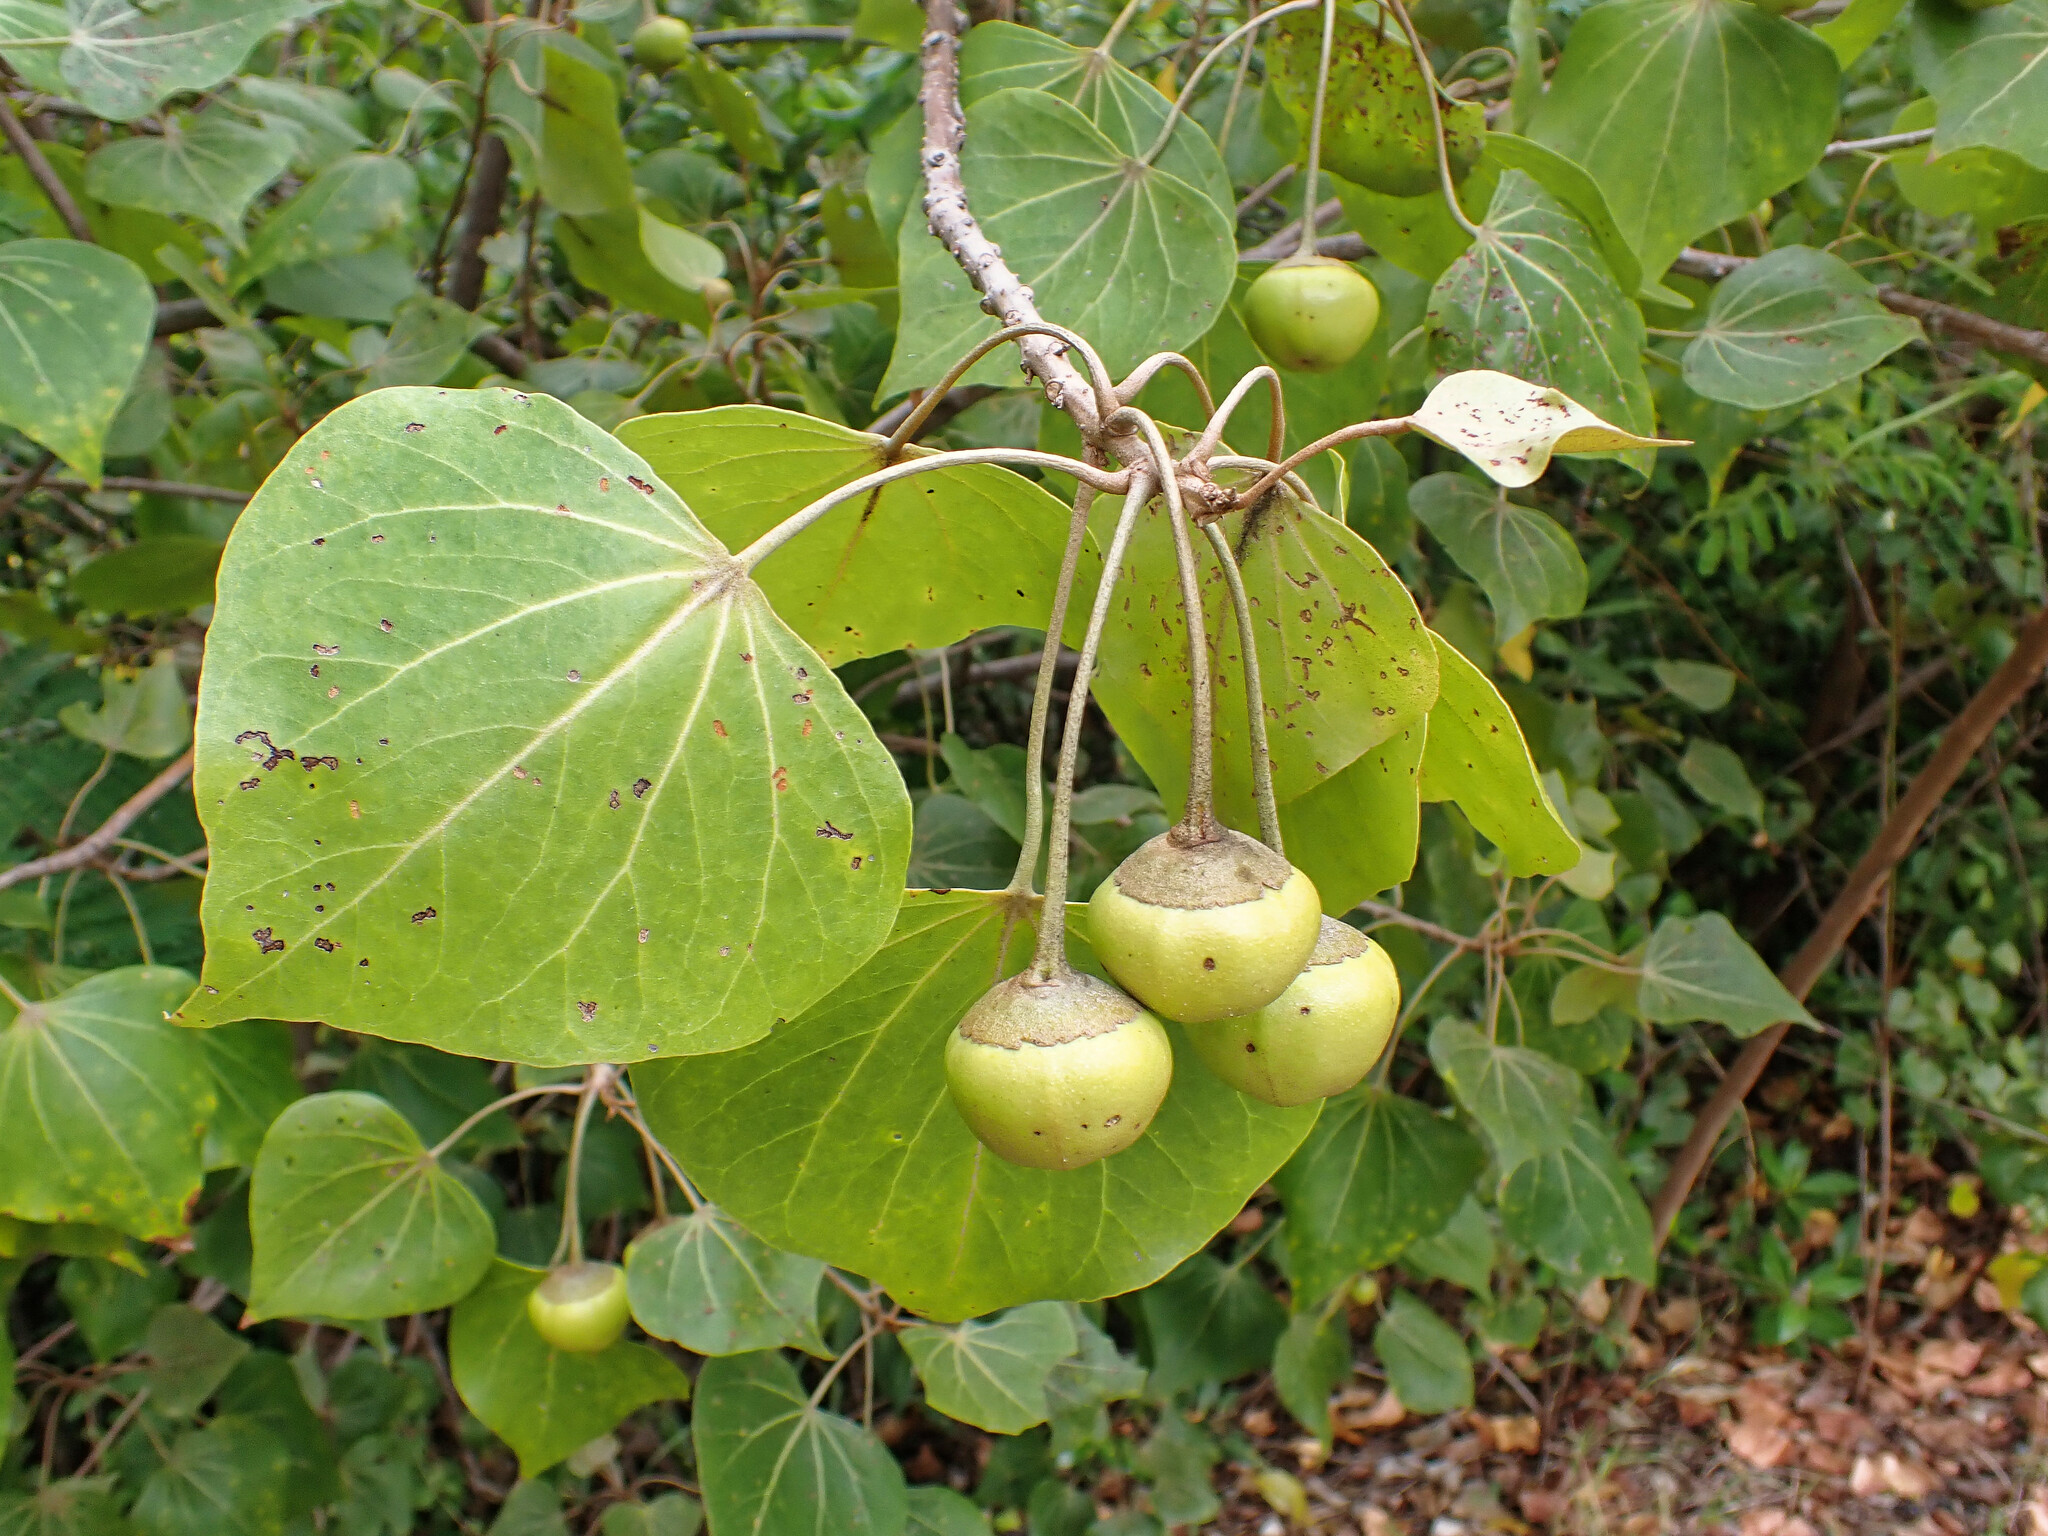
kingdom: Plantae
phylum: Tracheophyta
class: Magnoliopsida
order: Malvales
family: Malvaceae
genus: Thespesia
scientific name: Thespesia populnea
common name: Seaside mahoe
